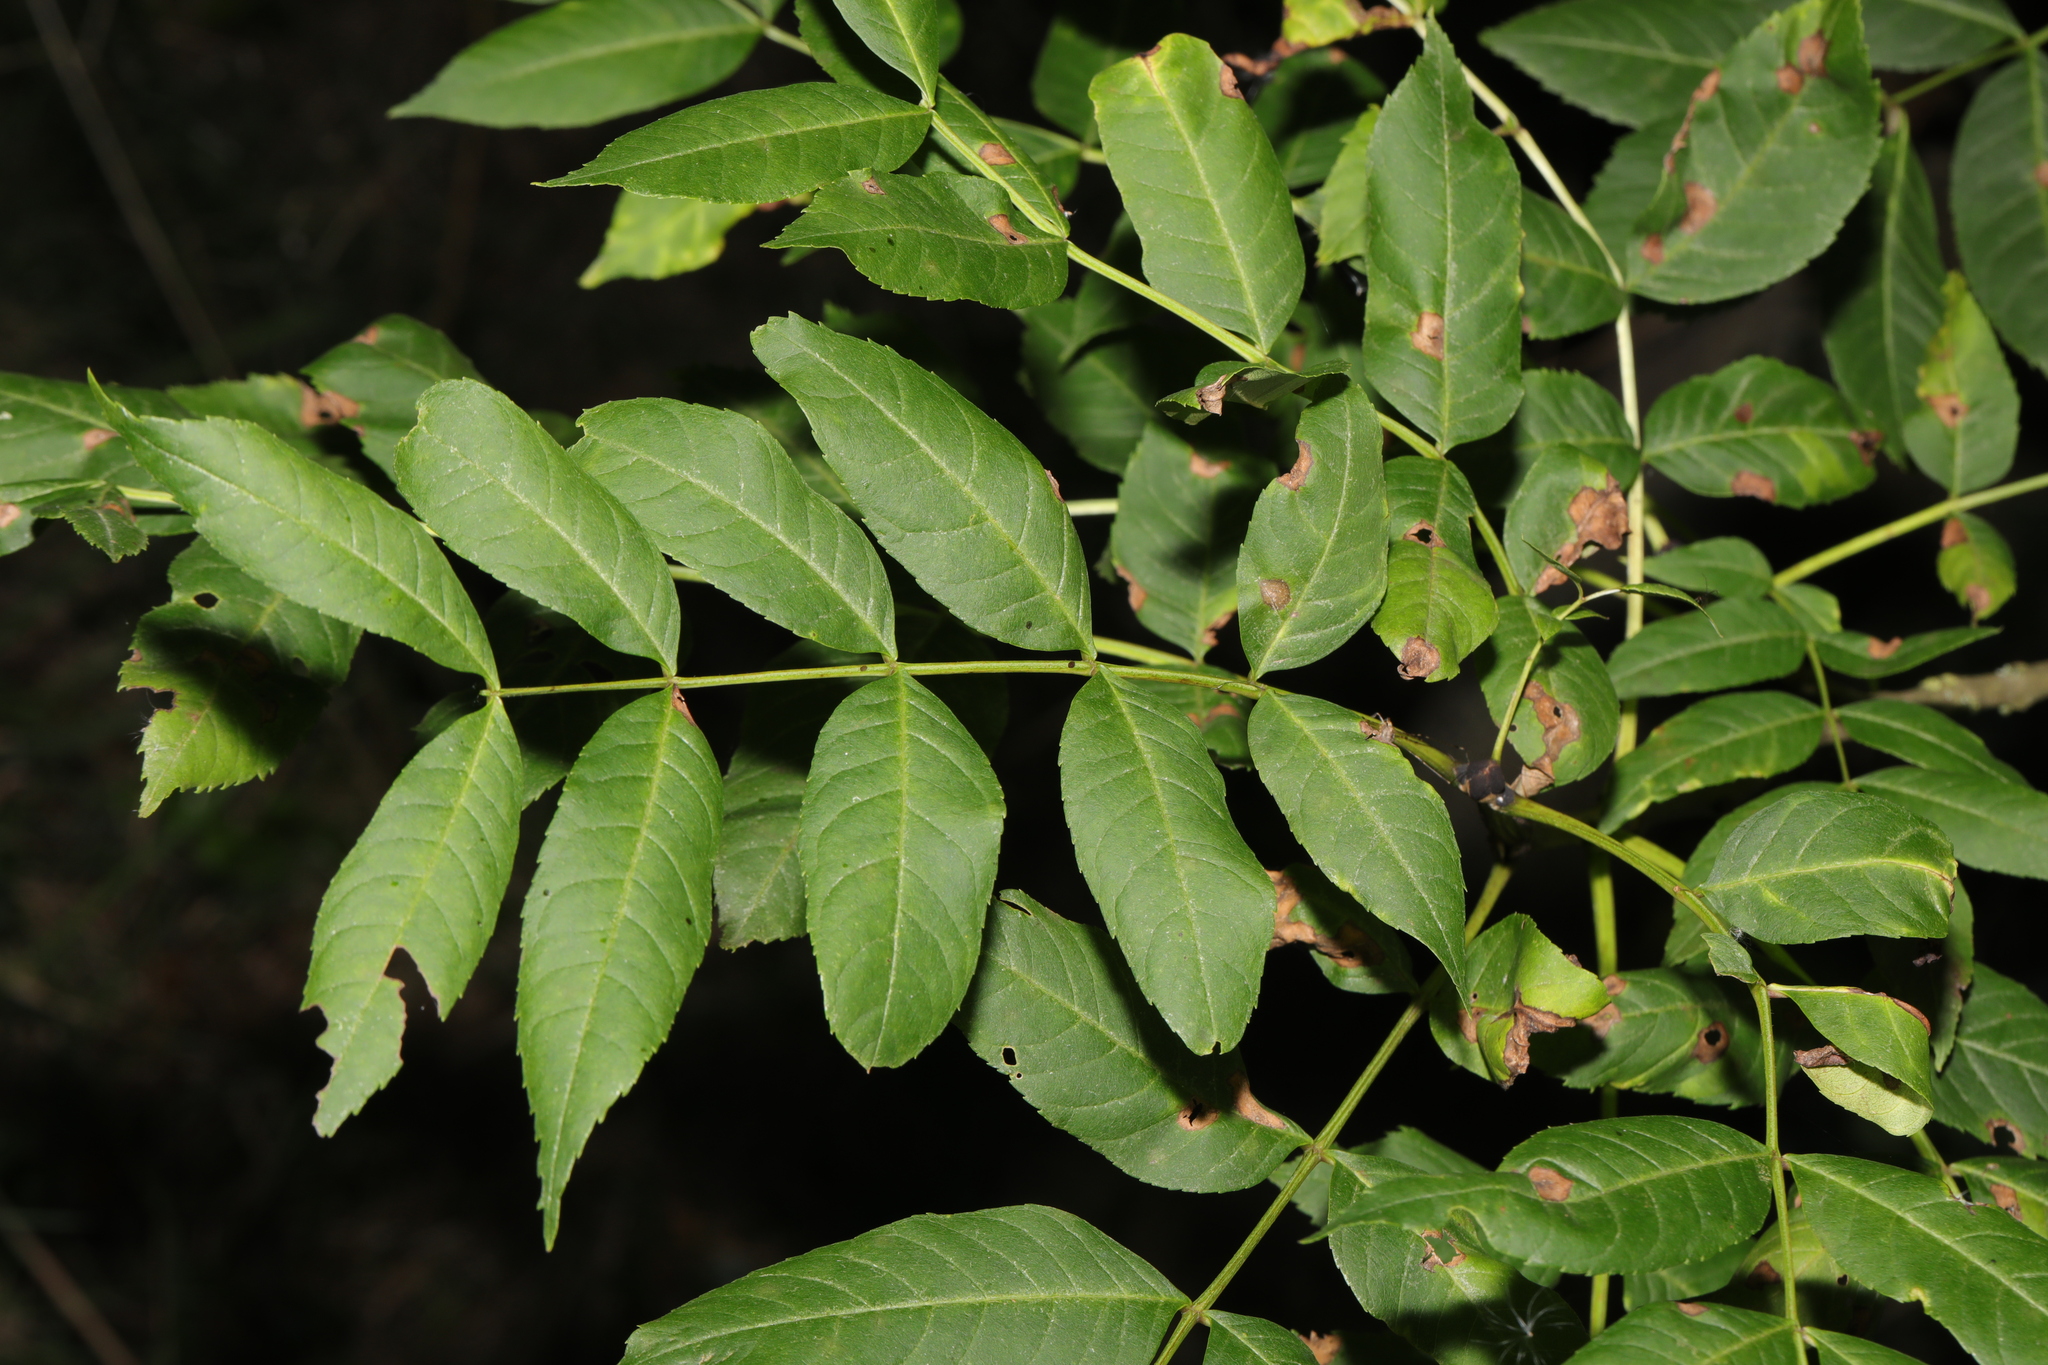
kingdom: Plantae
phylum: Tracheophyta
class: Magnoliopsida
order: Lamiales
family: Oleaceae
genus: Fraxinus
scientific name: Fraxinus excelsior
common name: European ash
